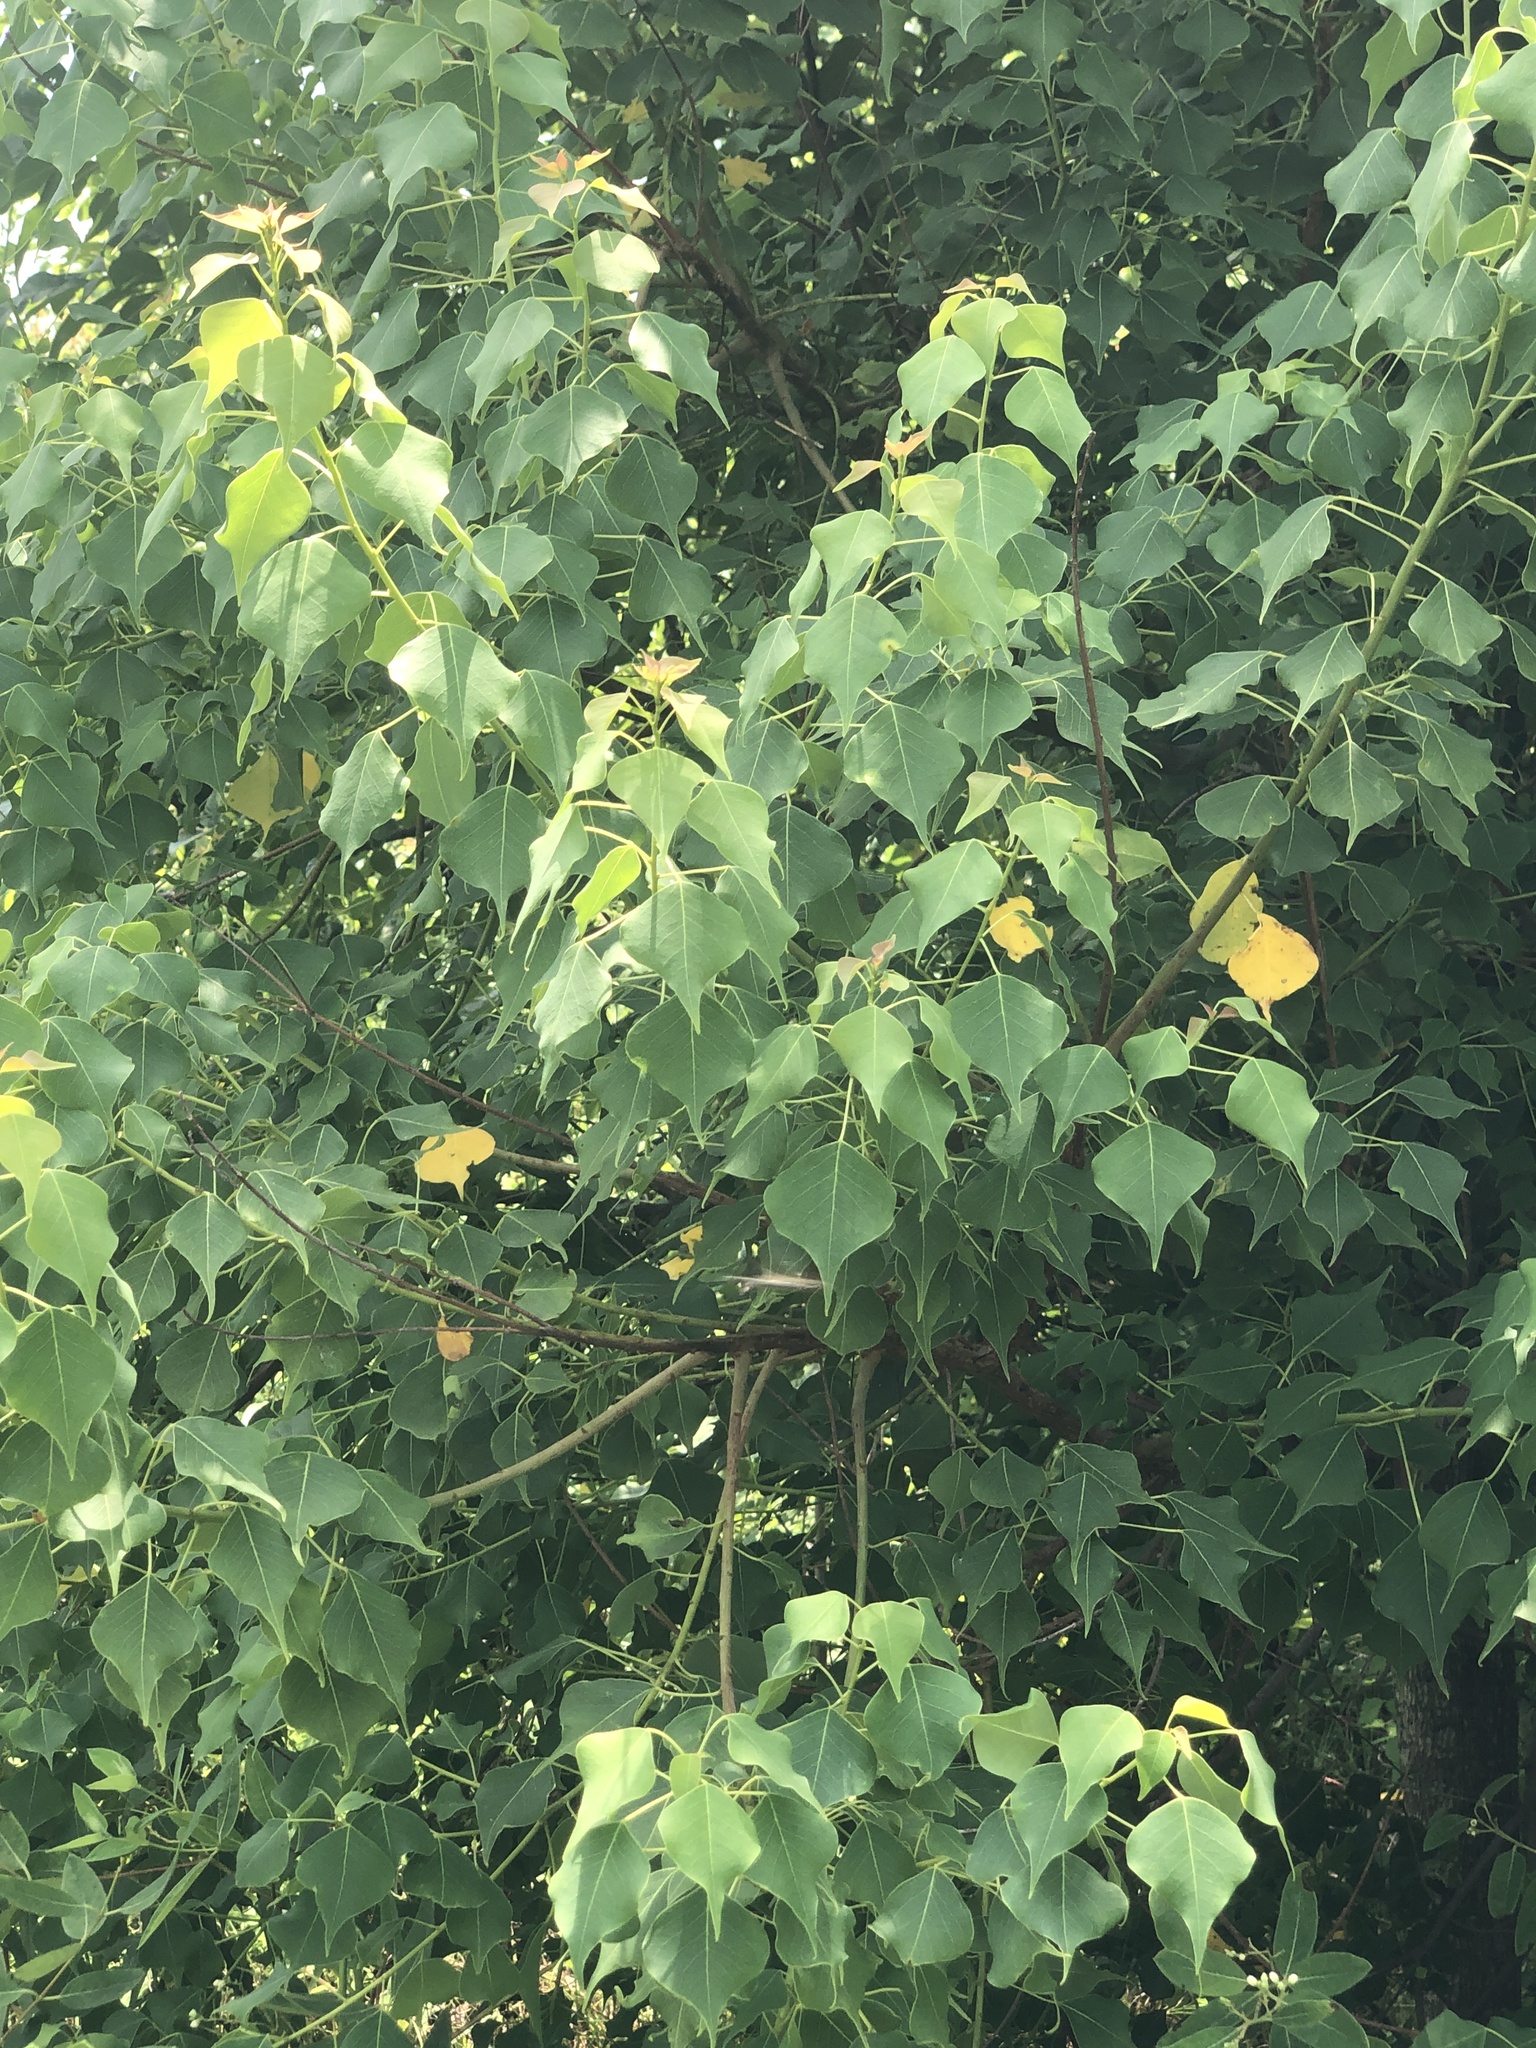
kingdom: Plantae
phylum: Tracheophyta
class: Magnoliopsida
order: Malpighiales
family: Euphorbiaceae
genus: Triadica
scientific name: Triadica sebifera
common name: Chinese tallow
